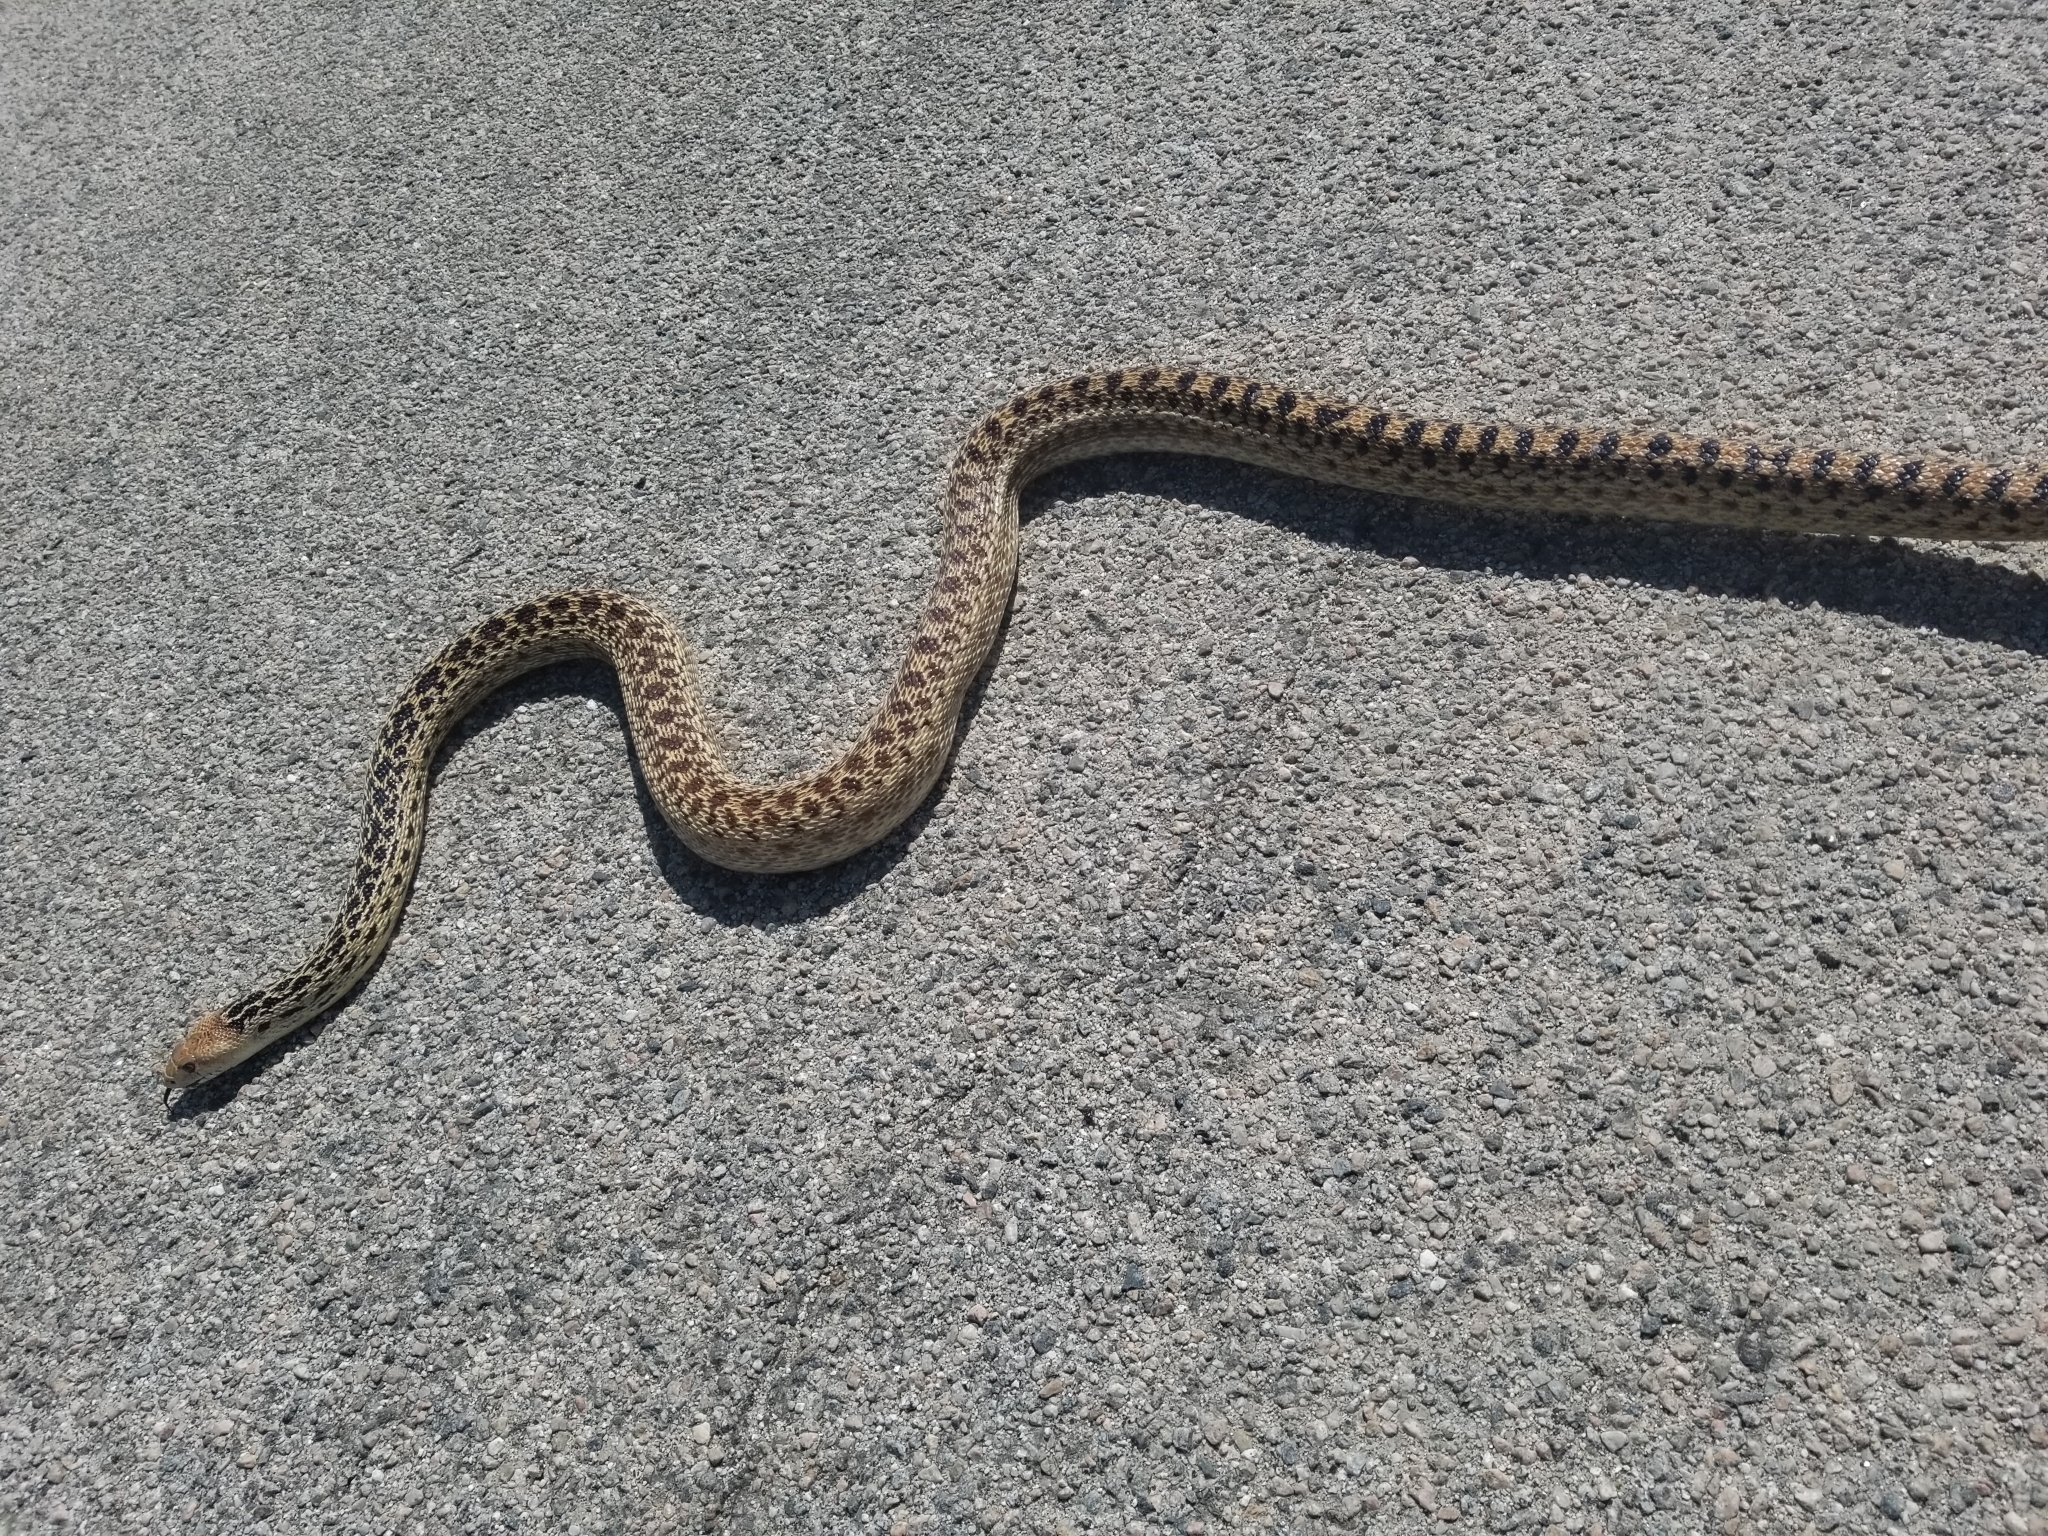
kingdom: Animalia
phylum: Chordata
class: Squamata
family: Colubridae
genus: Pituophis
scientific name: Pituophis catenifer
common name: Gopher snake
